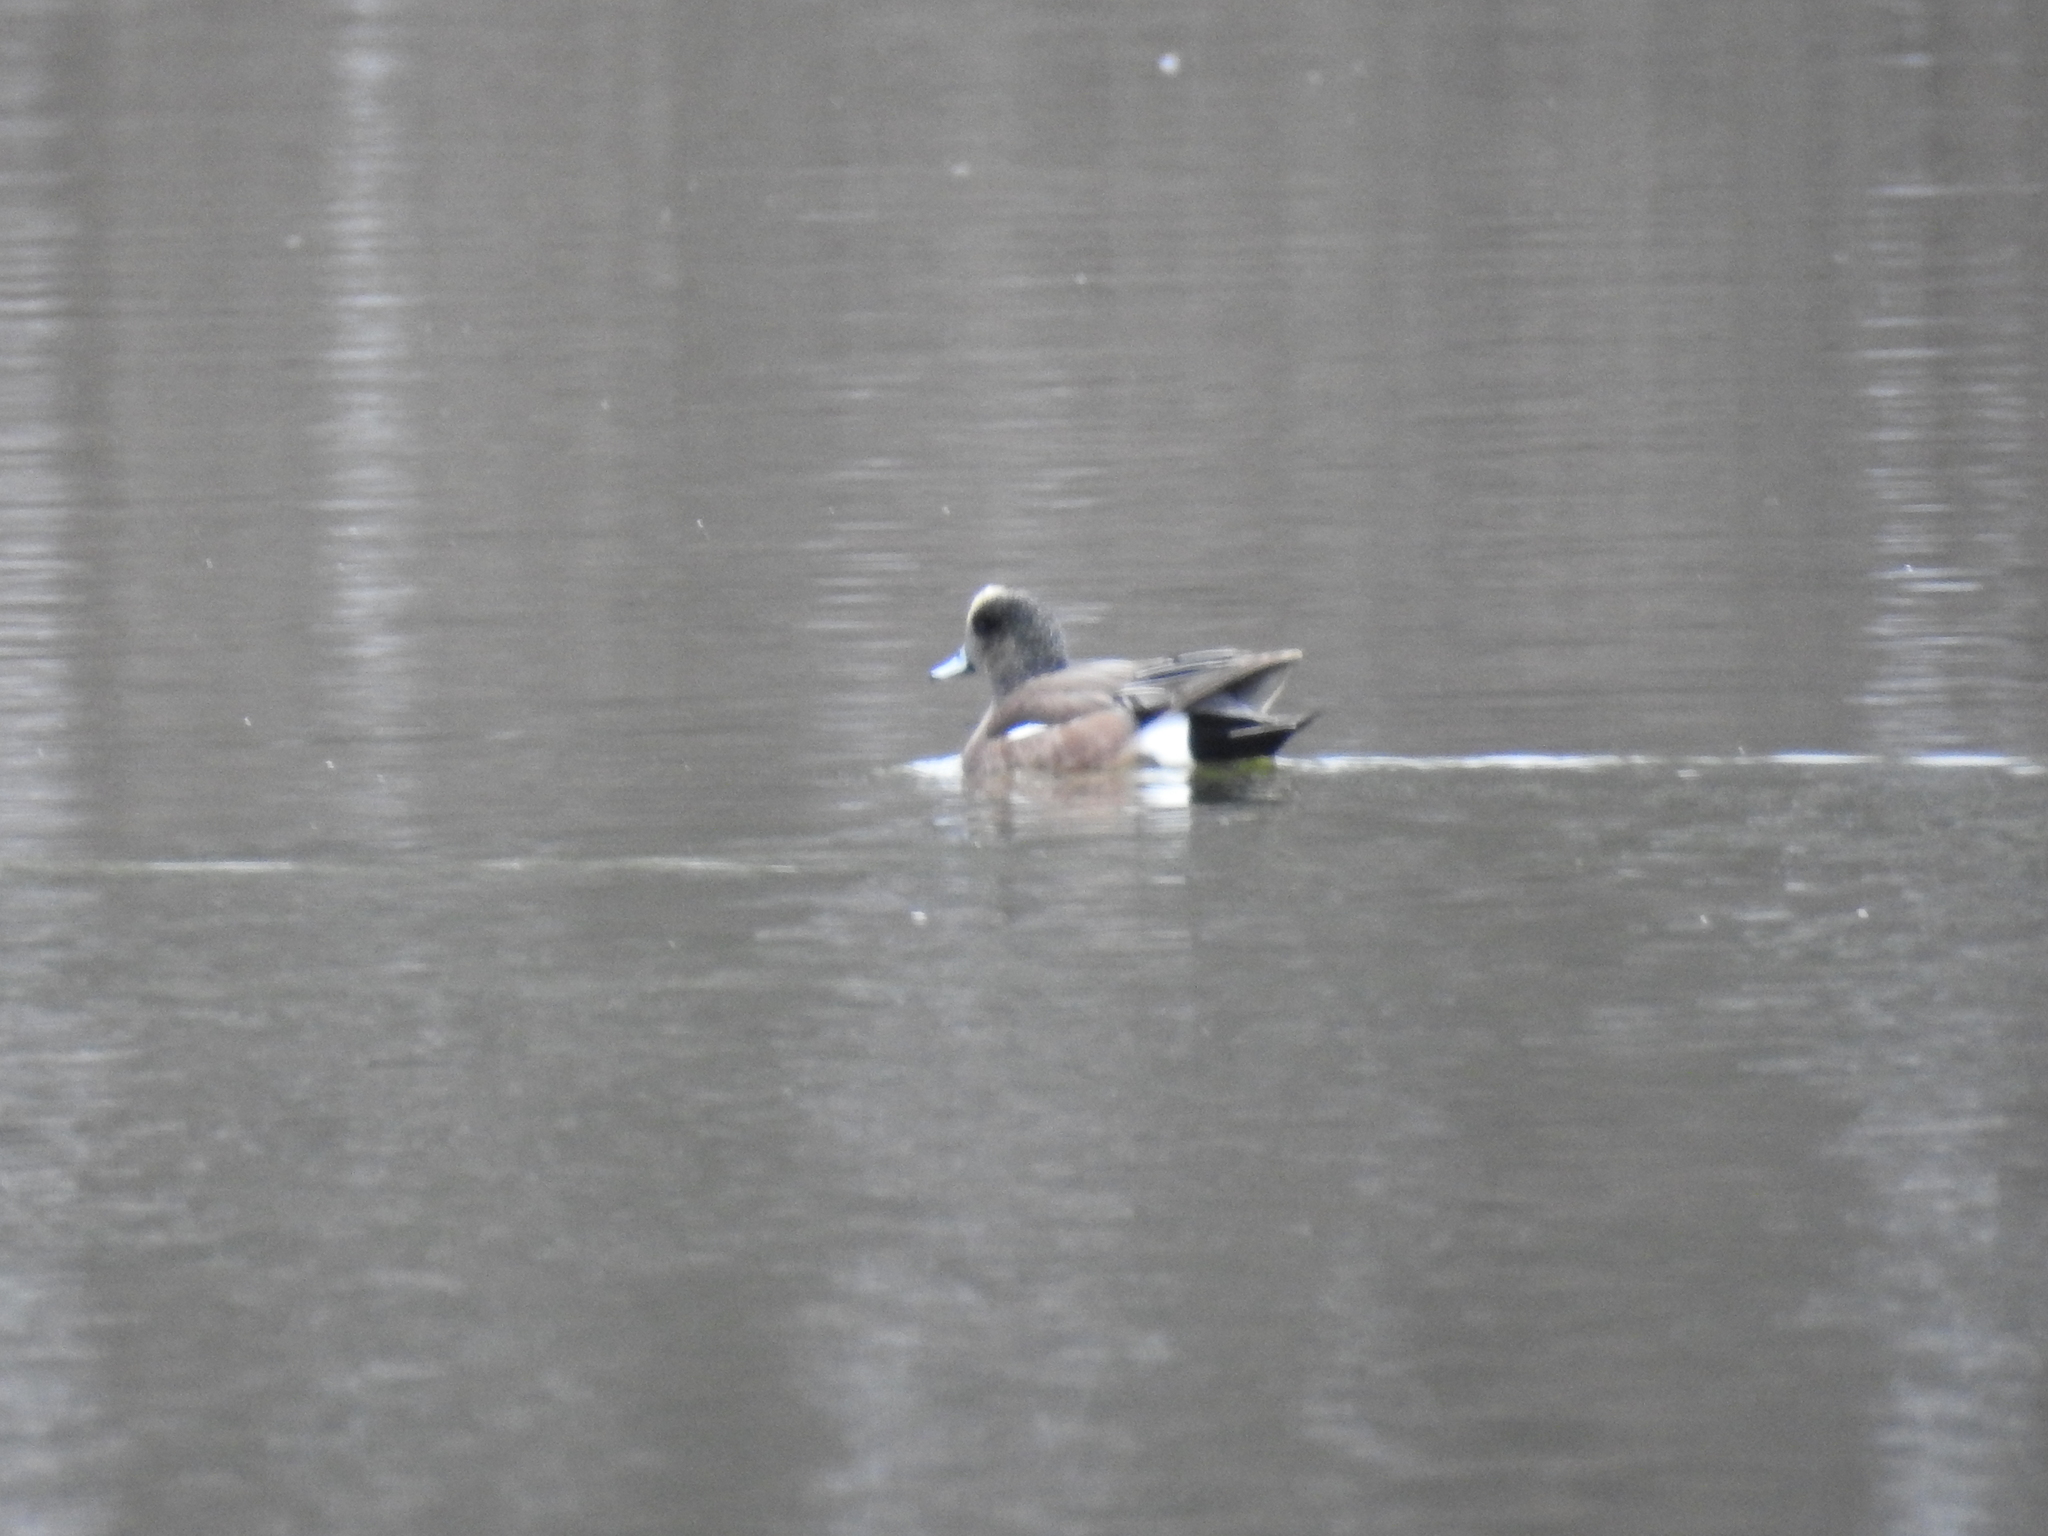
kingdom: Animalia
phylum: Chordata
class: Aves
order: Anseriformes
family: Anatidae
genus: Mareca
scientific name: Mareca americana
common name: American wigeon
